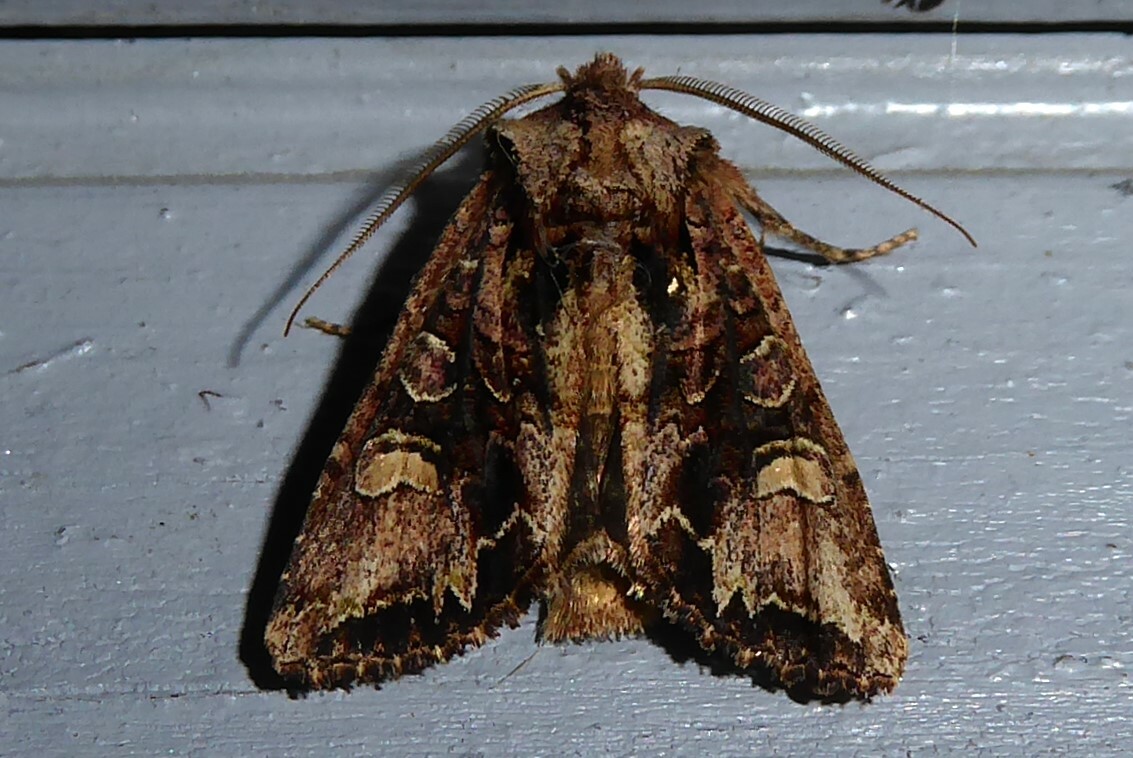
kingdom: Animalia
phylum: Arthropoda
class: Insecta
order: Lepidoptera
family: Noctuidae
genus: Ichneutica
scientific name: Ichneutica insignis
